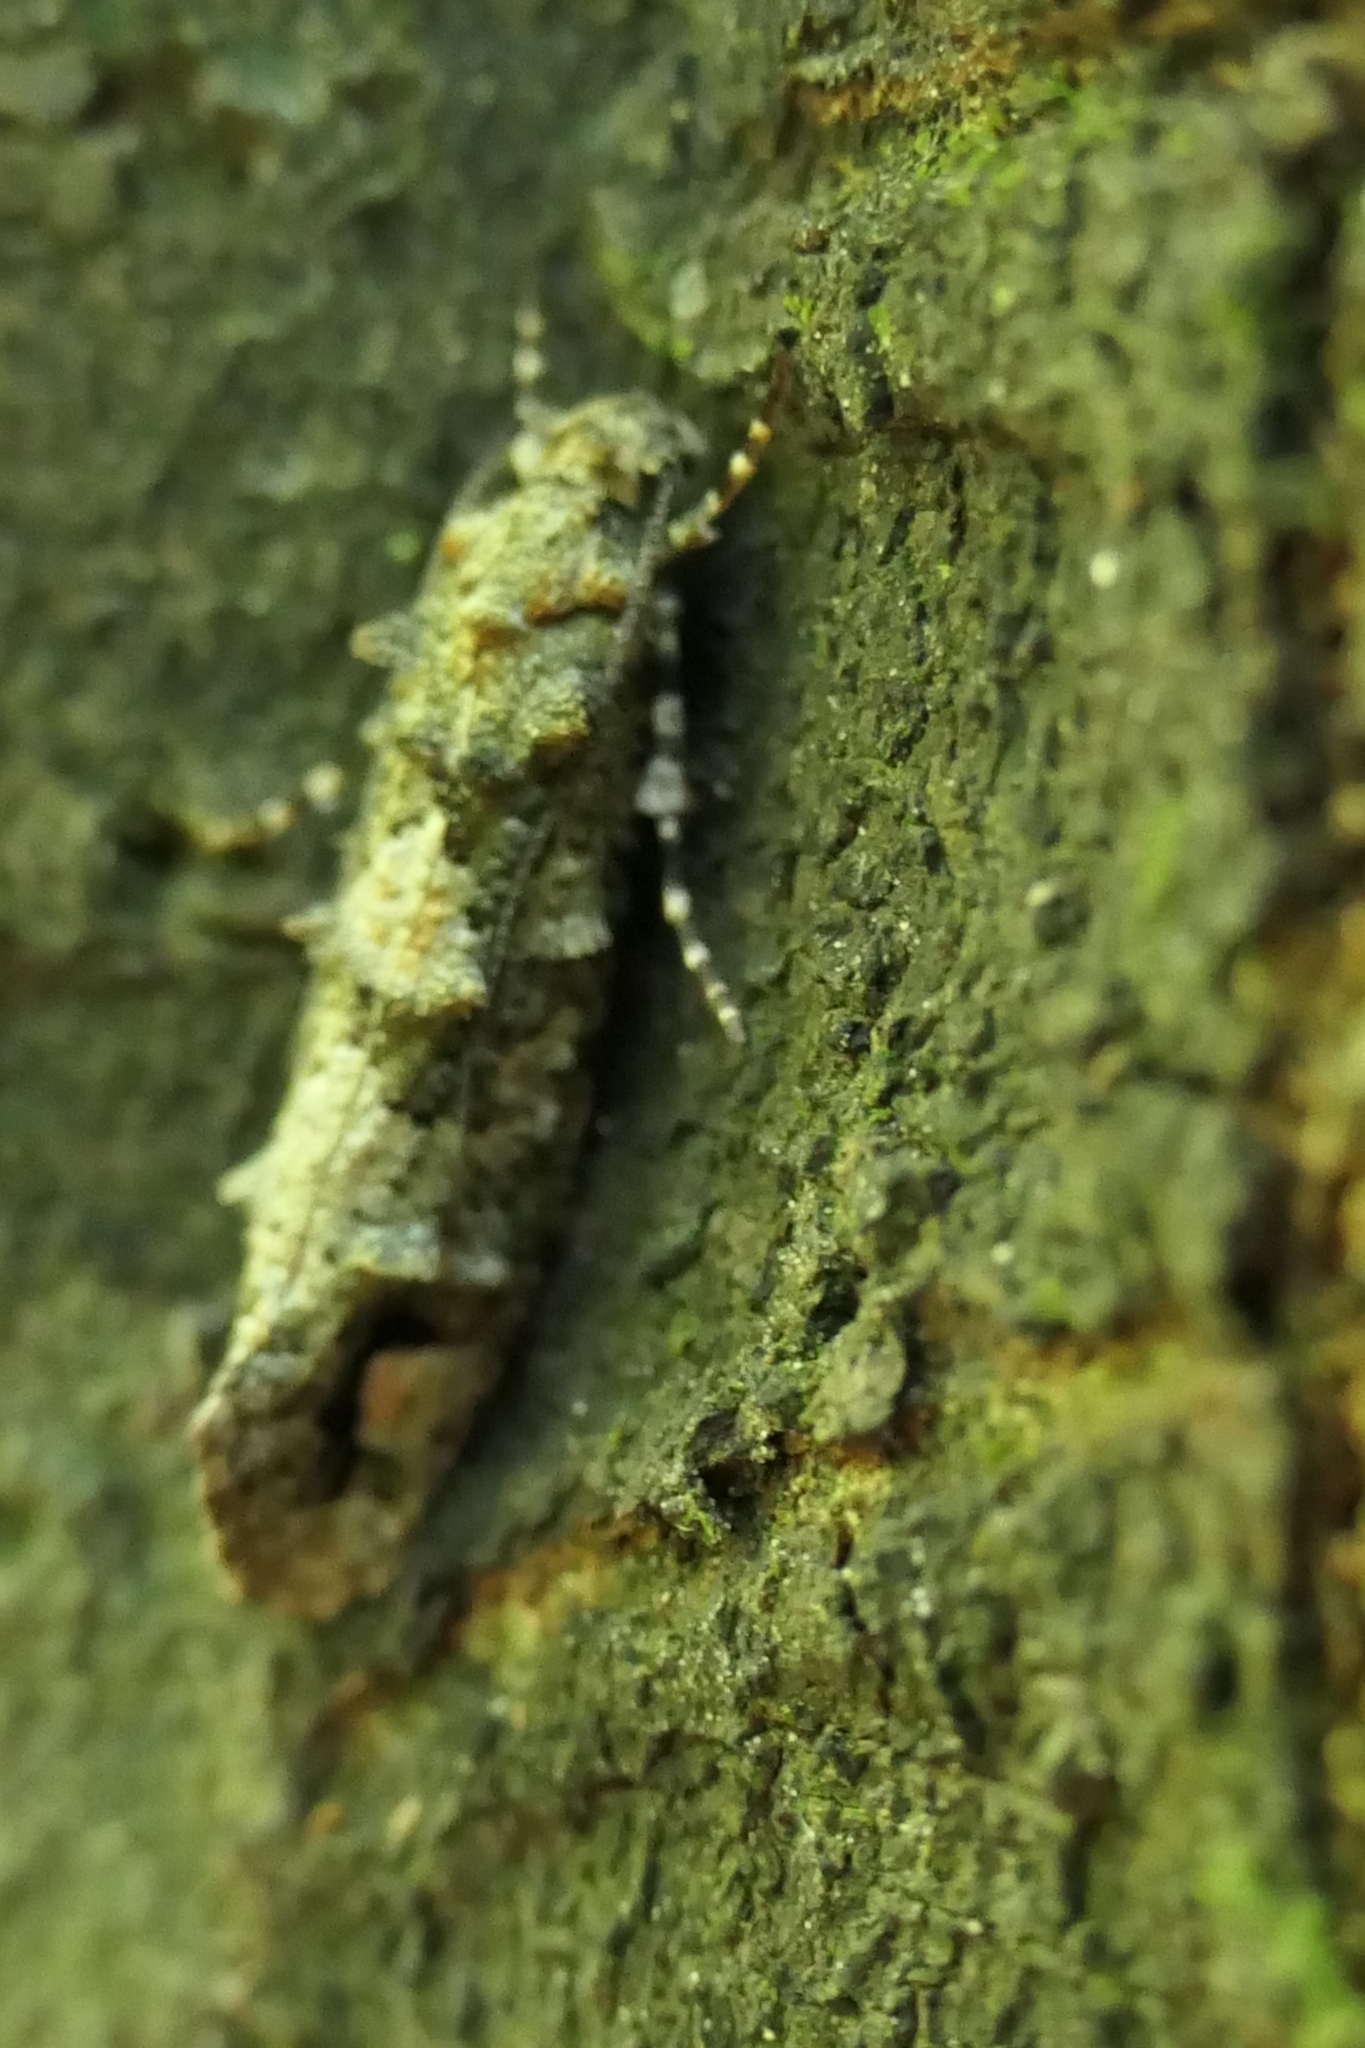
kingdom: Animalia
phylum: Arthropoda
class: Insecta
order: Lepidoptera
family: Tineidae
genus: Lysiphragma
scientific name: Lysiphragma howesii
